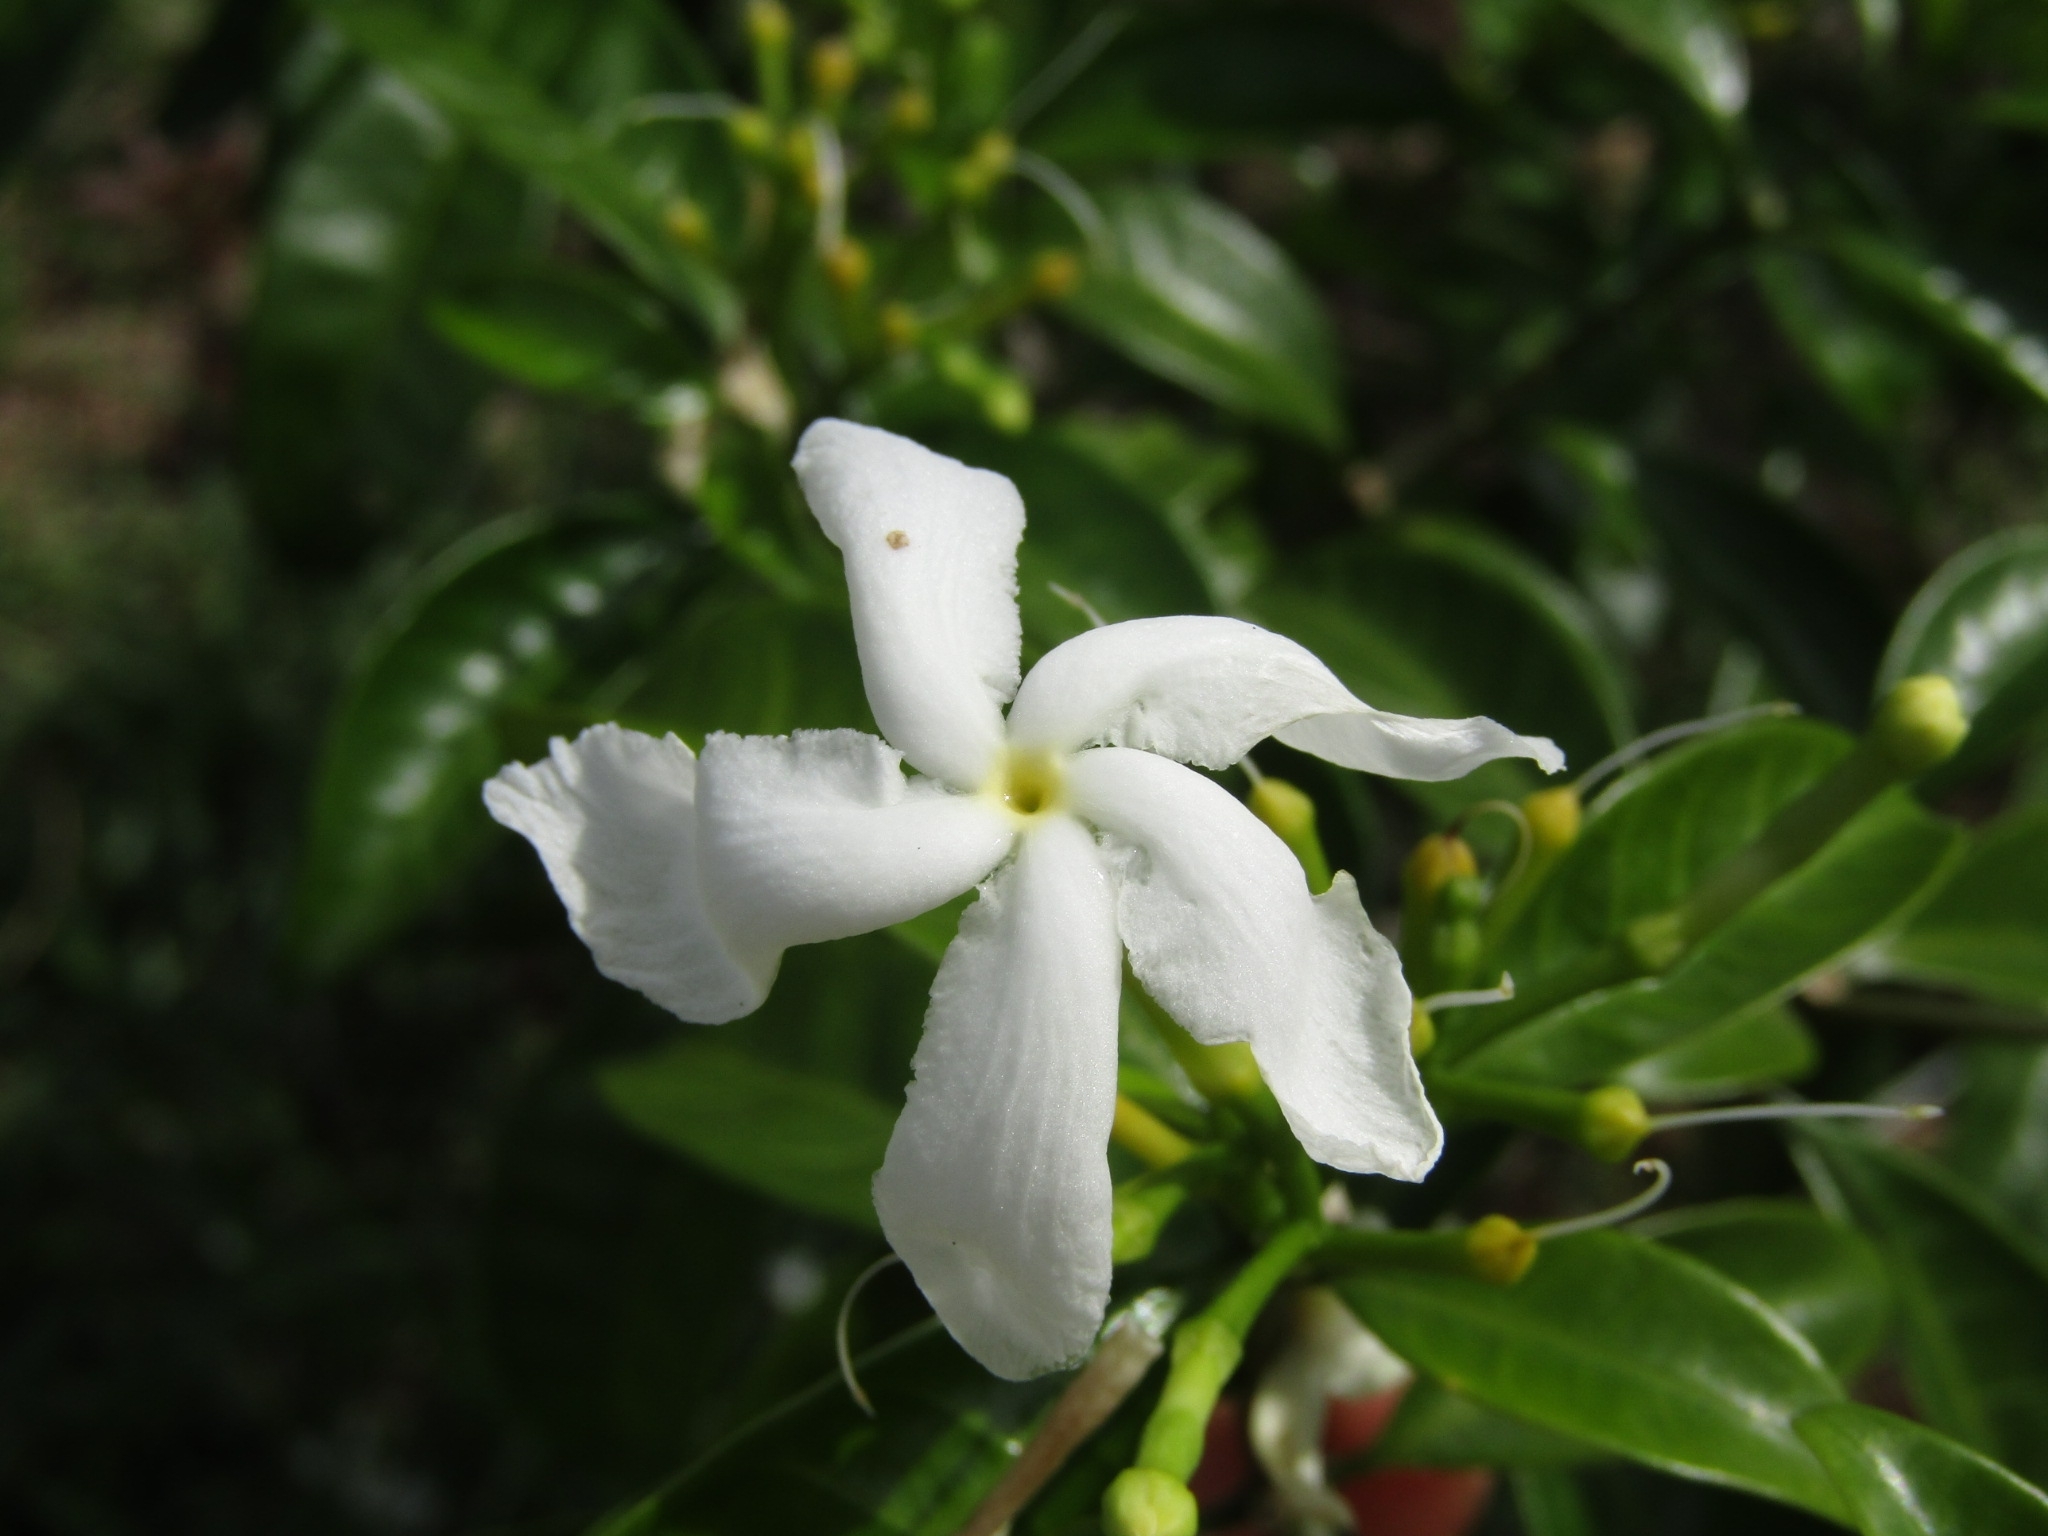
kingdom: Plantae
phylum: Tracheophyta
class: Magnoliopsida
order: Gentianales
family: Apocynaceae
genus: Tabernaemontana
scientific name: Tabernaemontana divaricata
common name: Pinwheelflower
